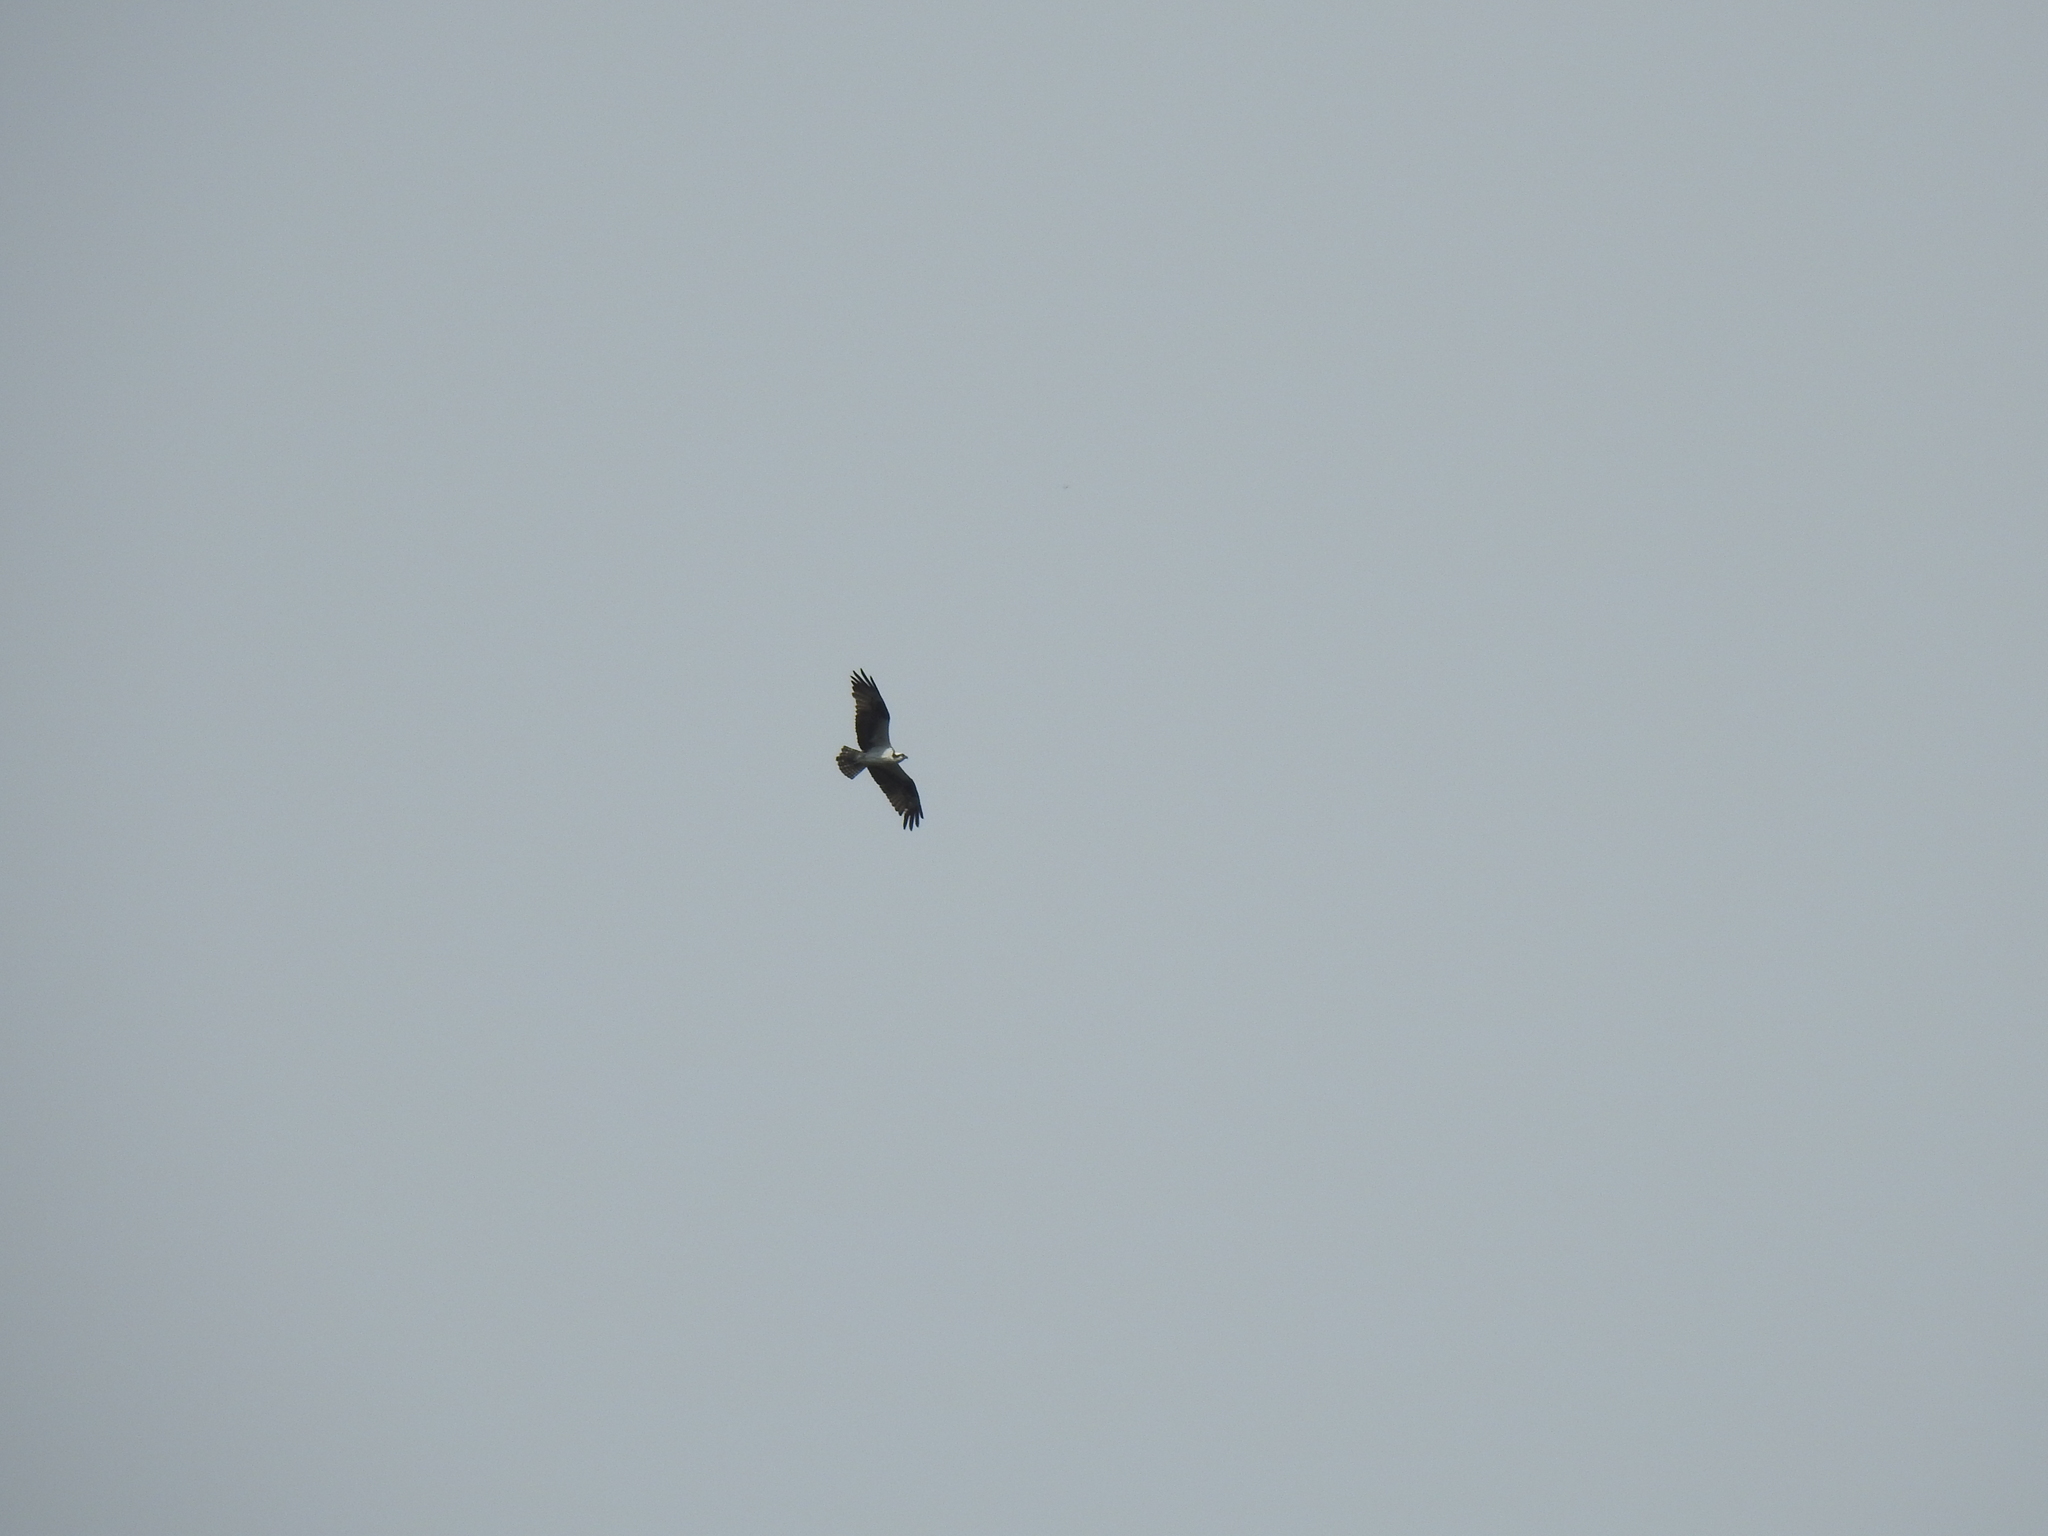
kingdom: Animalia
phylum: Chordata
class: Aves
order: Accipitriformes
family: Pandionidae
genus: Pandion
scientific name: Pandion haliaetus
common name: Osprey
